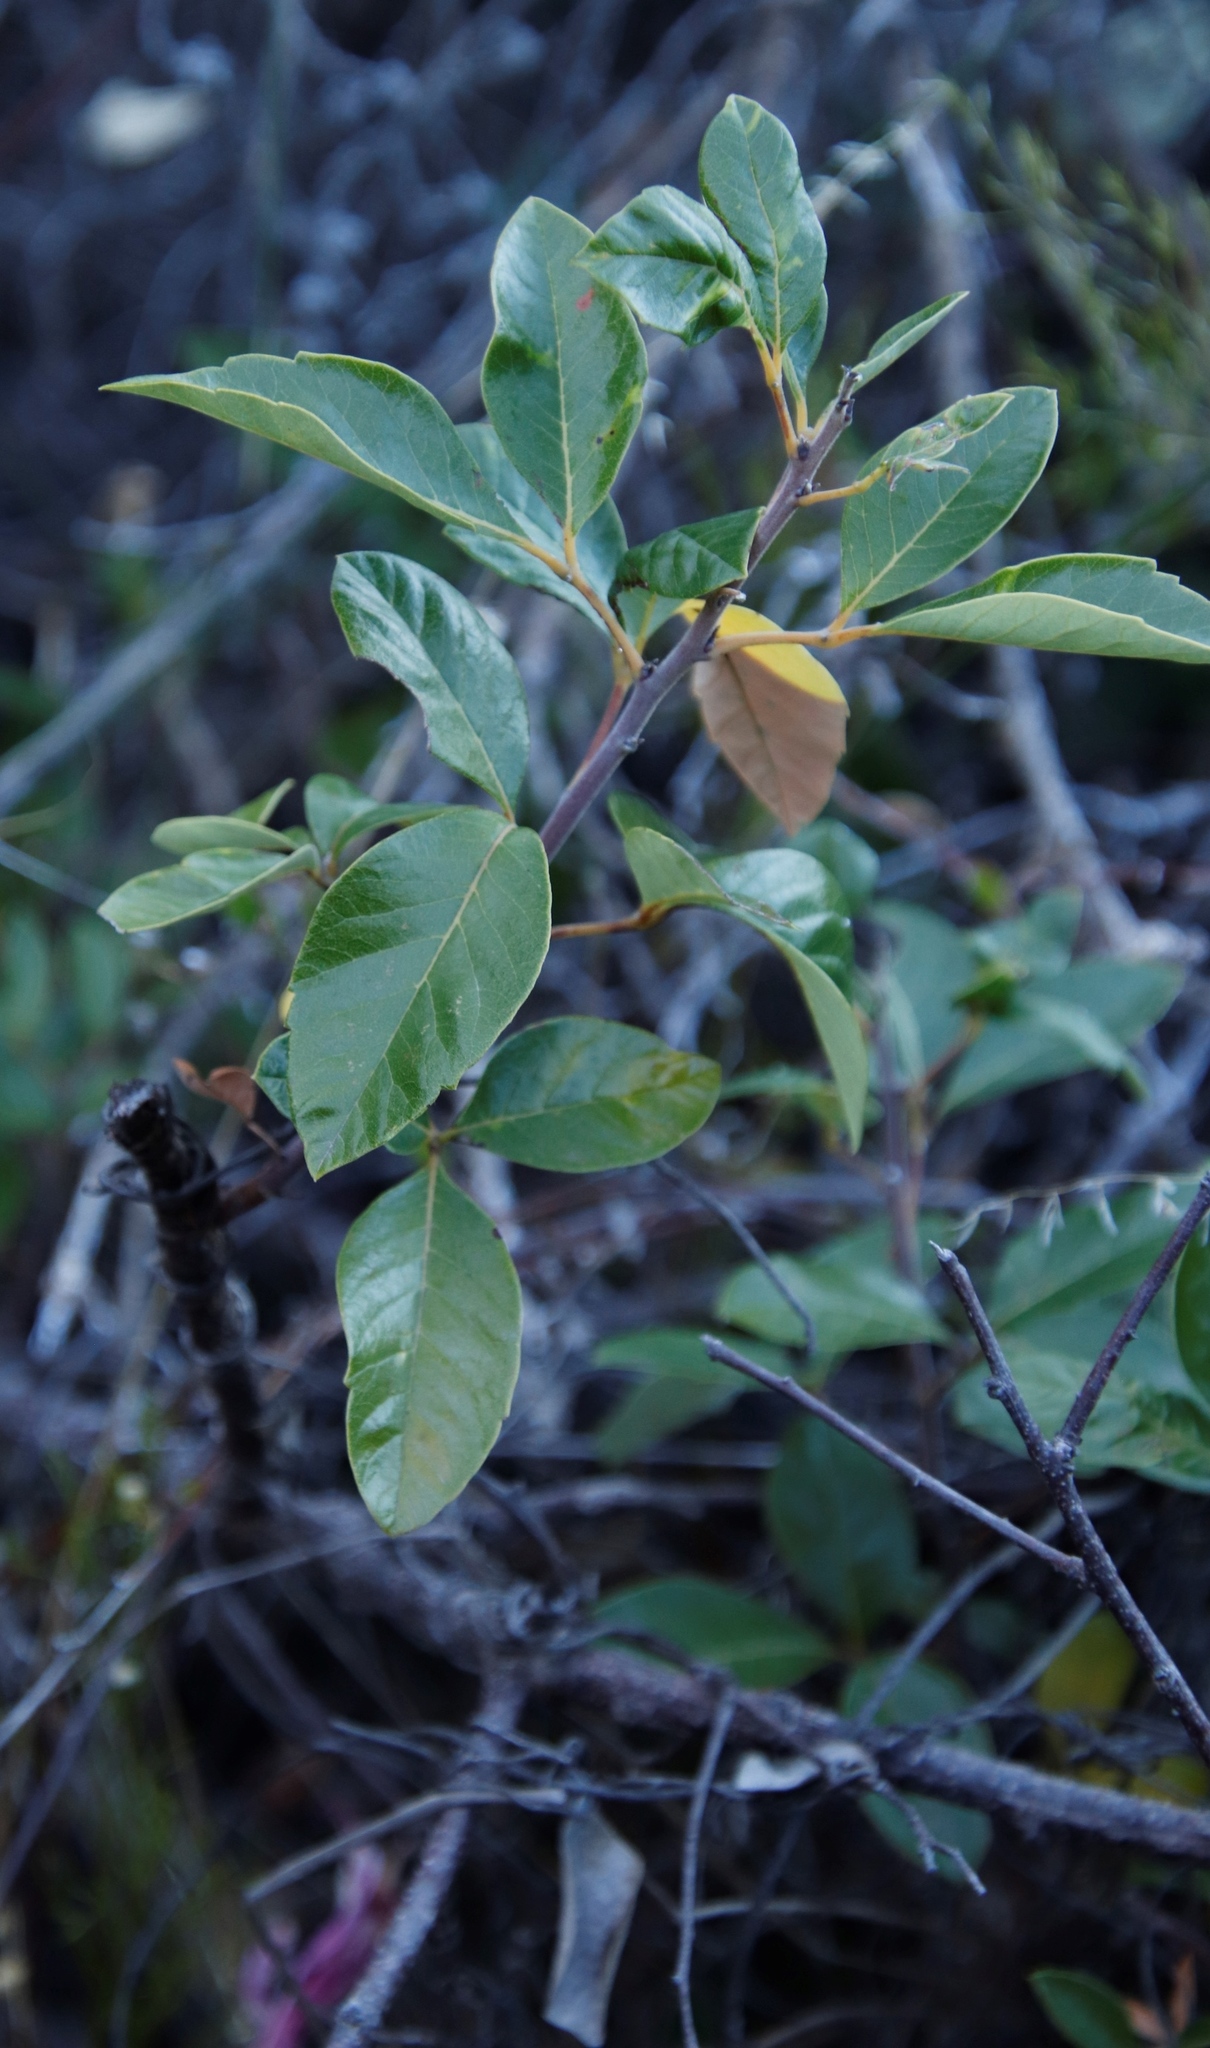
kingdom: Plantae
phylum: Tracheophyta
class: Magnoliopsida
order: Sapindales
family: Anacardiaceae
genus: Searsia
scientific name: Searsia tomentosa
